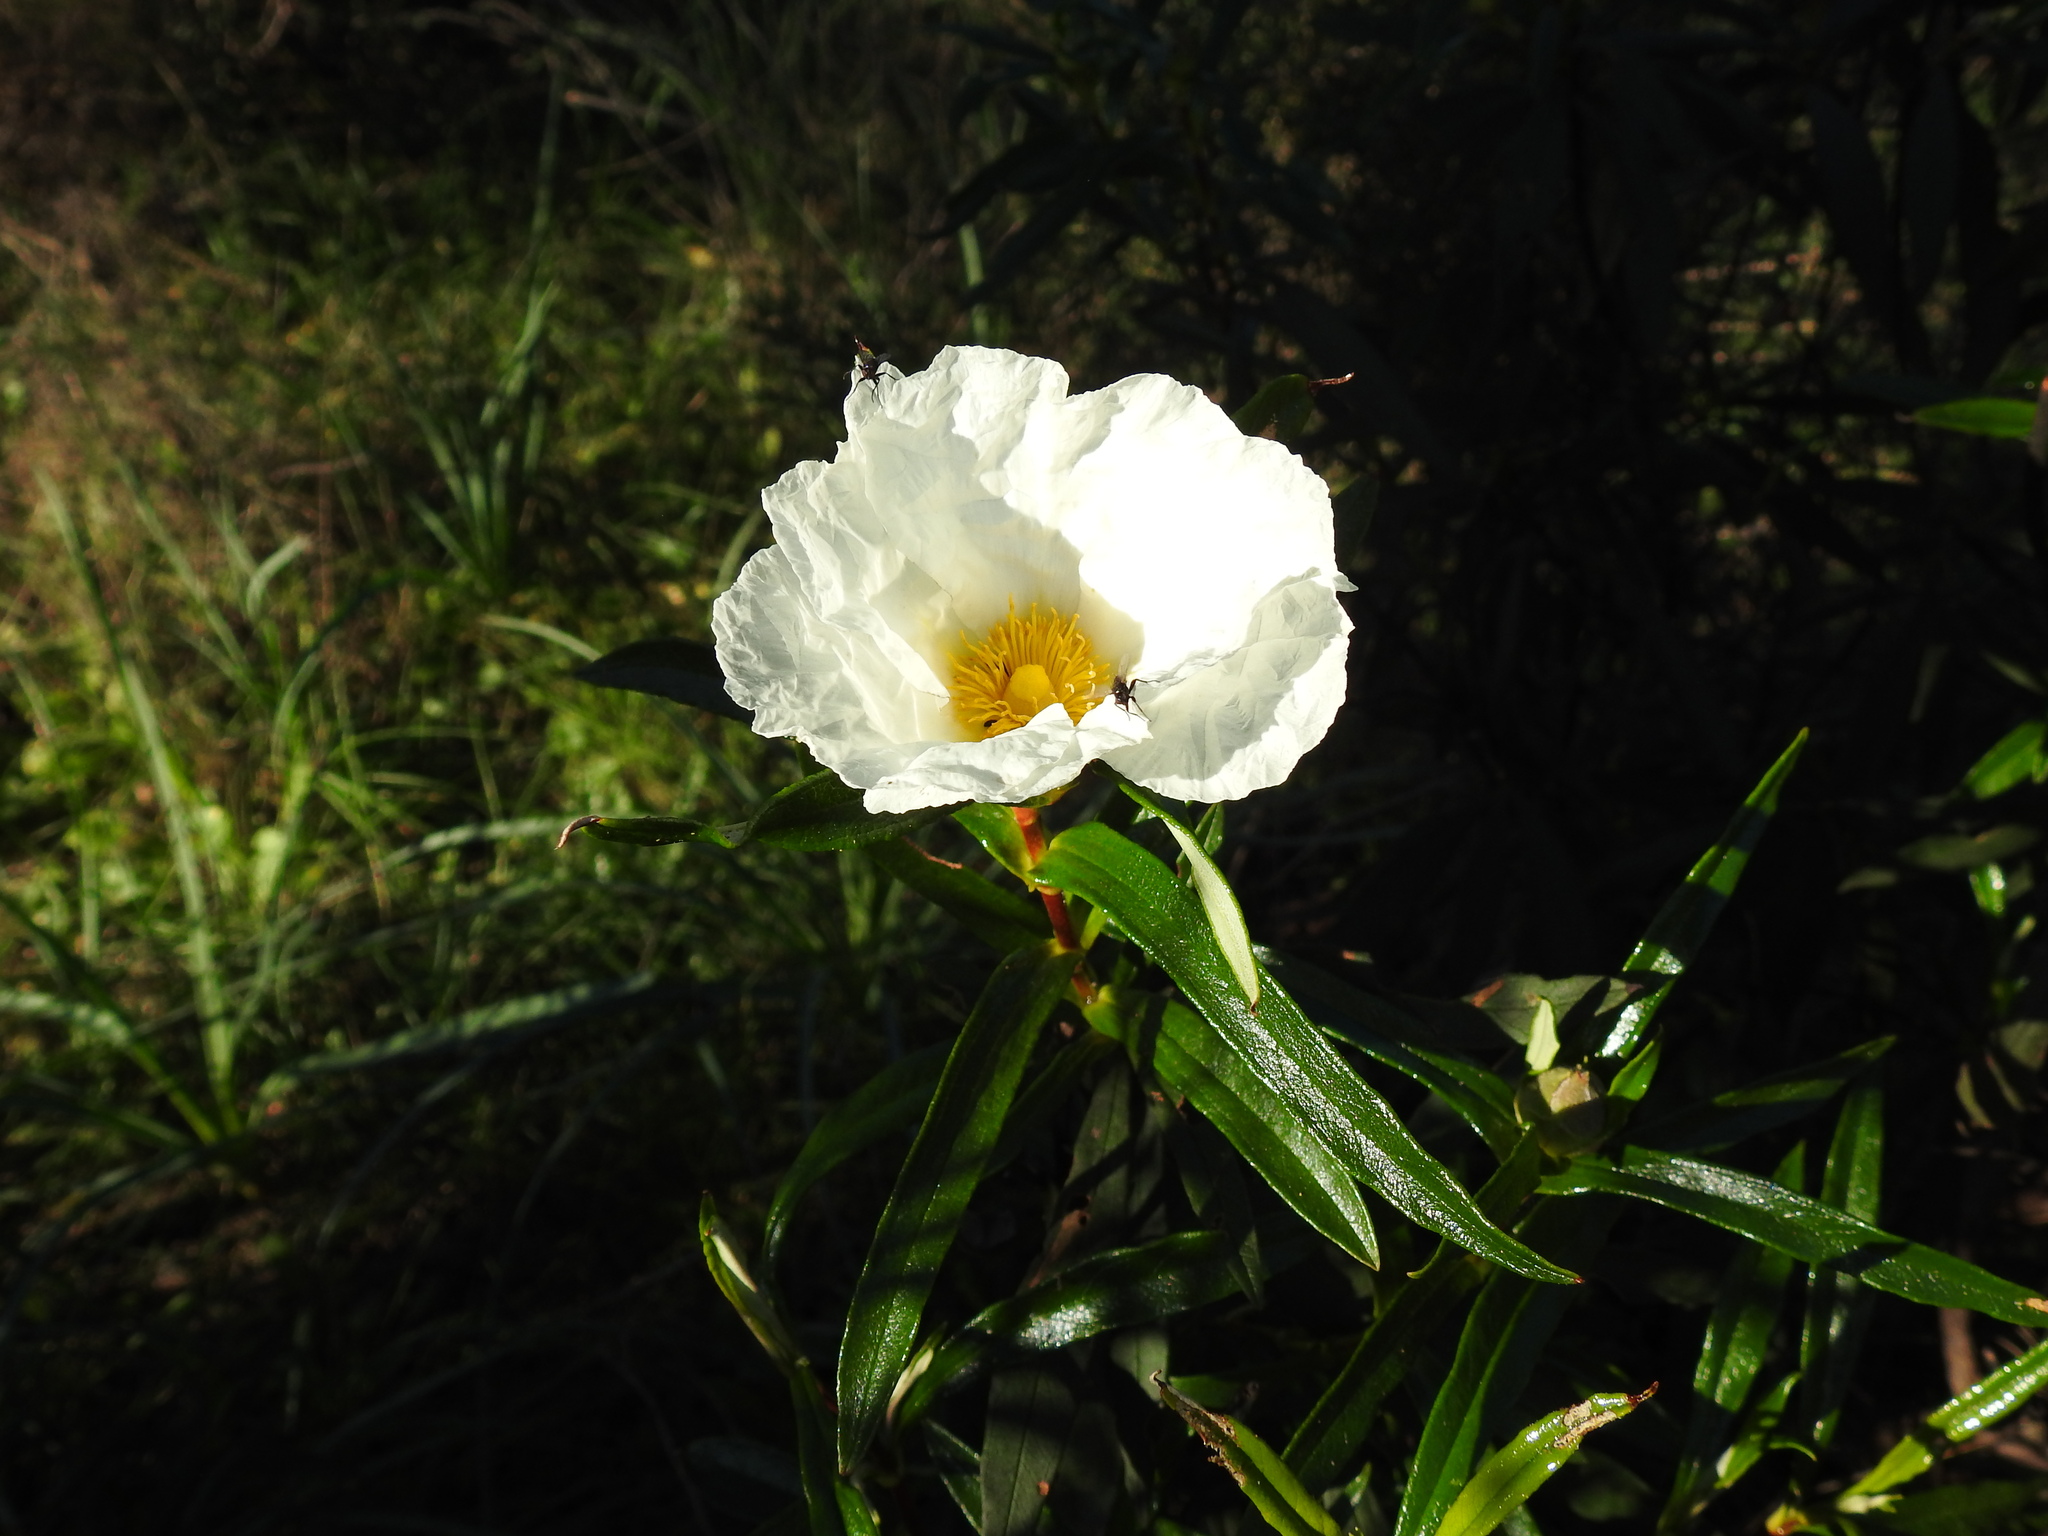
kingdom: Plantae
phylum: Tracheophyta
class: Magnoliopsida
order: Malvales
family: Cistaceae
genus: Cistus
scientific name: Cistus ladanifer
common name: Common gum cistus
